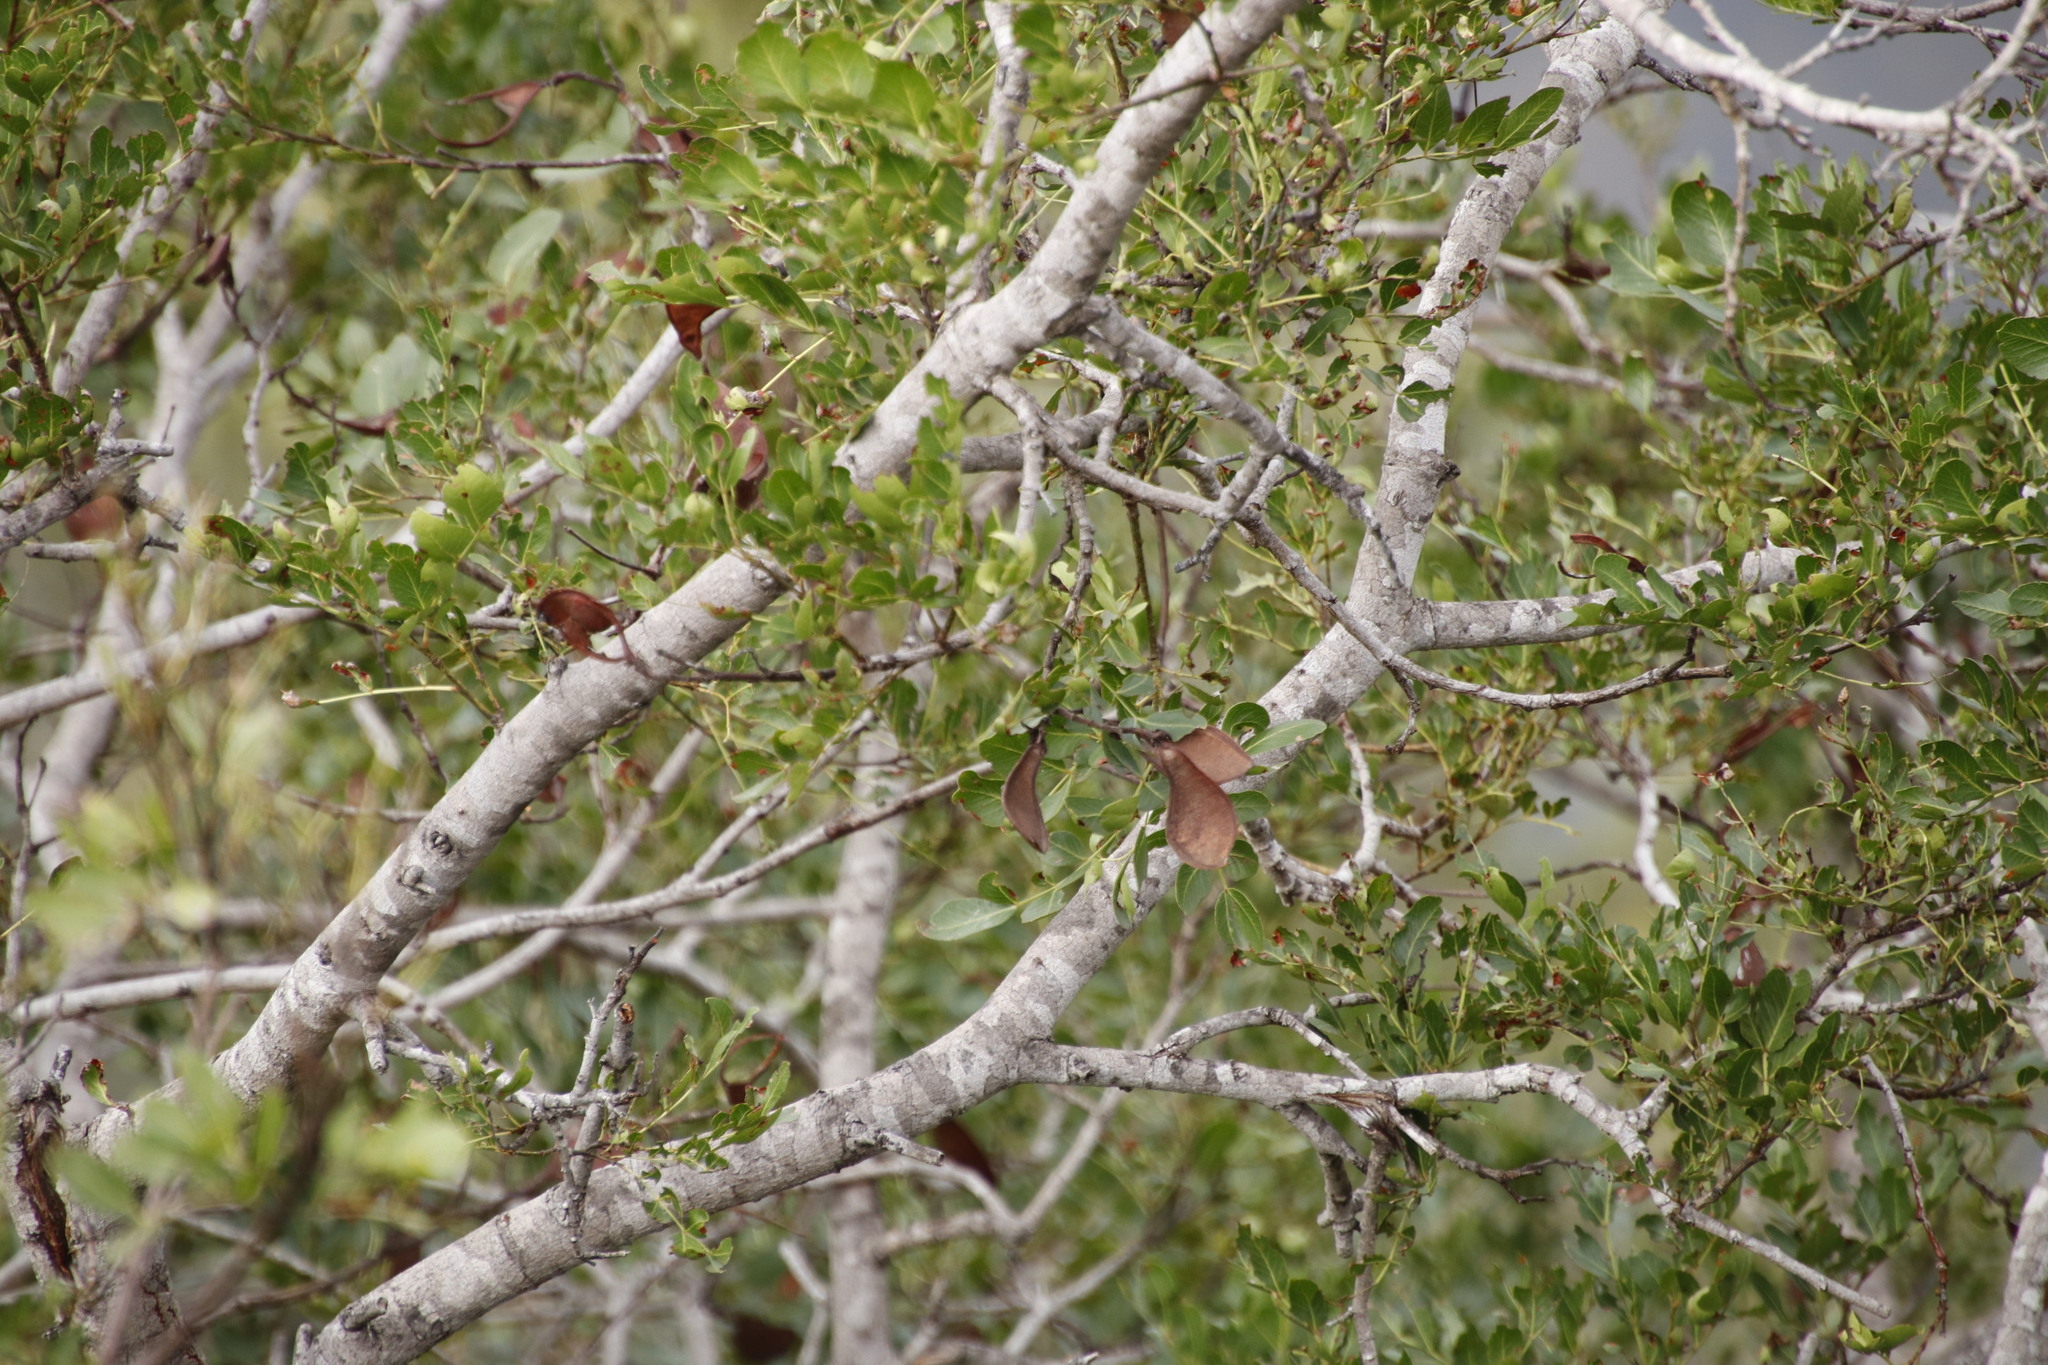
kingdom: Plantae
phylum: Tracheophyta
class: Magnoliopsida
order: Fabales
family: Fabaceae
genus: Schotia
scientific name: Schotia brachypetala
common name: Weeping boer-bean
